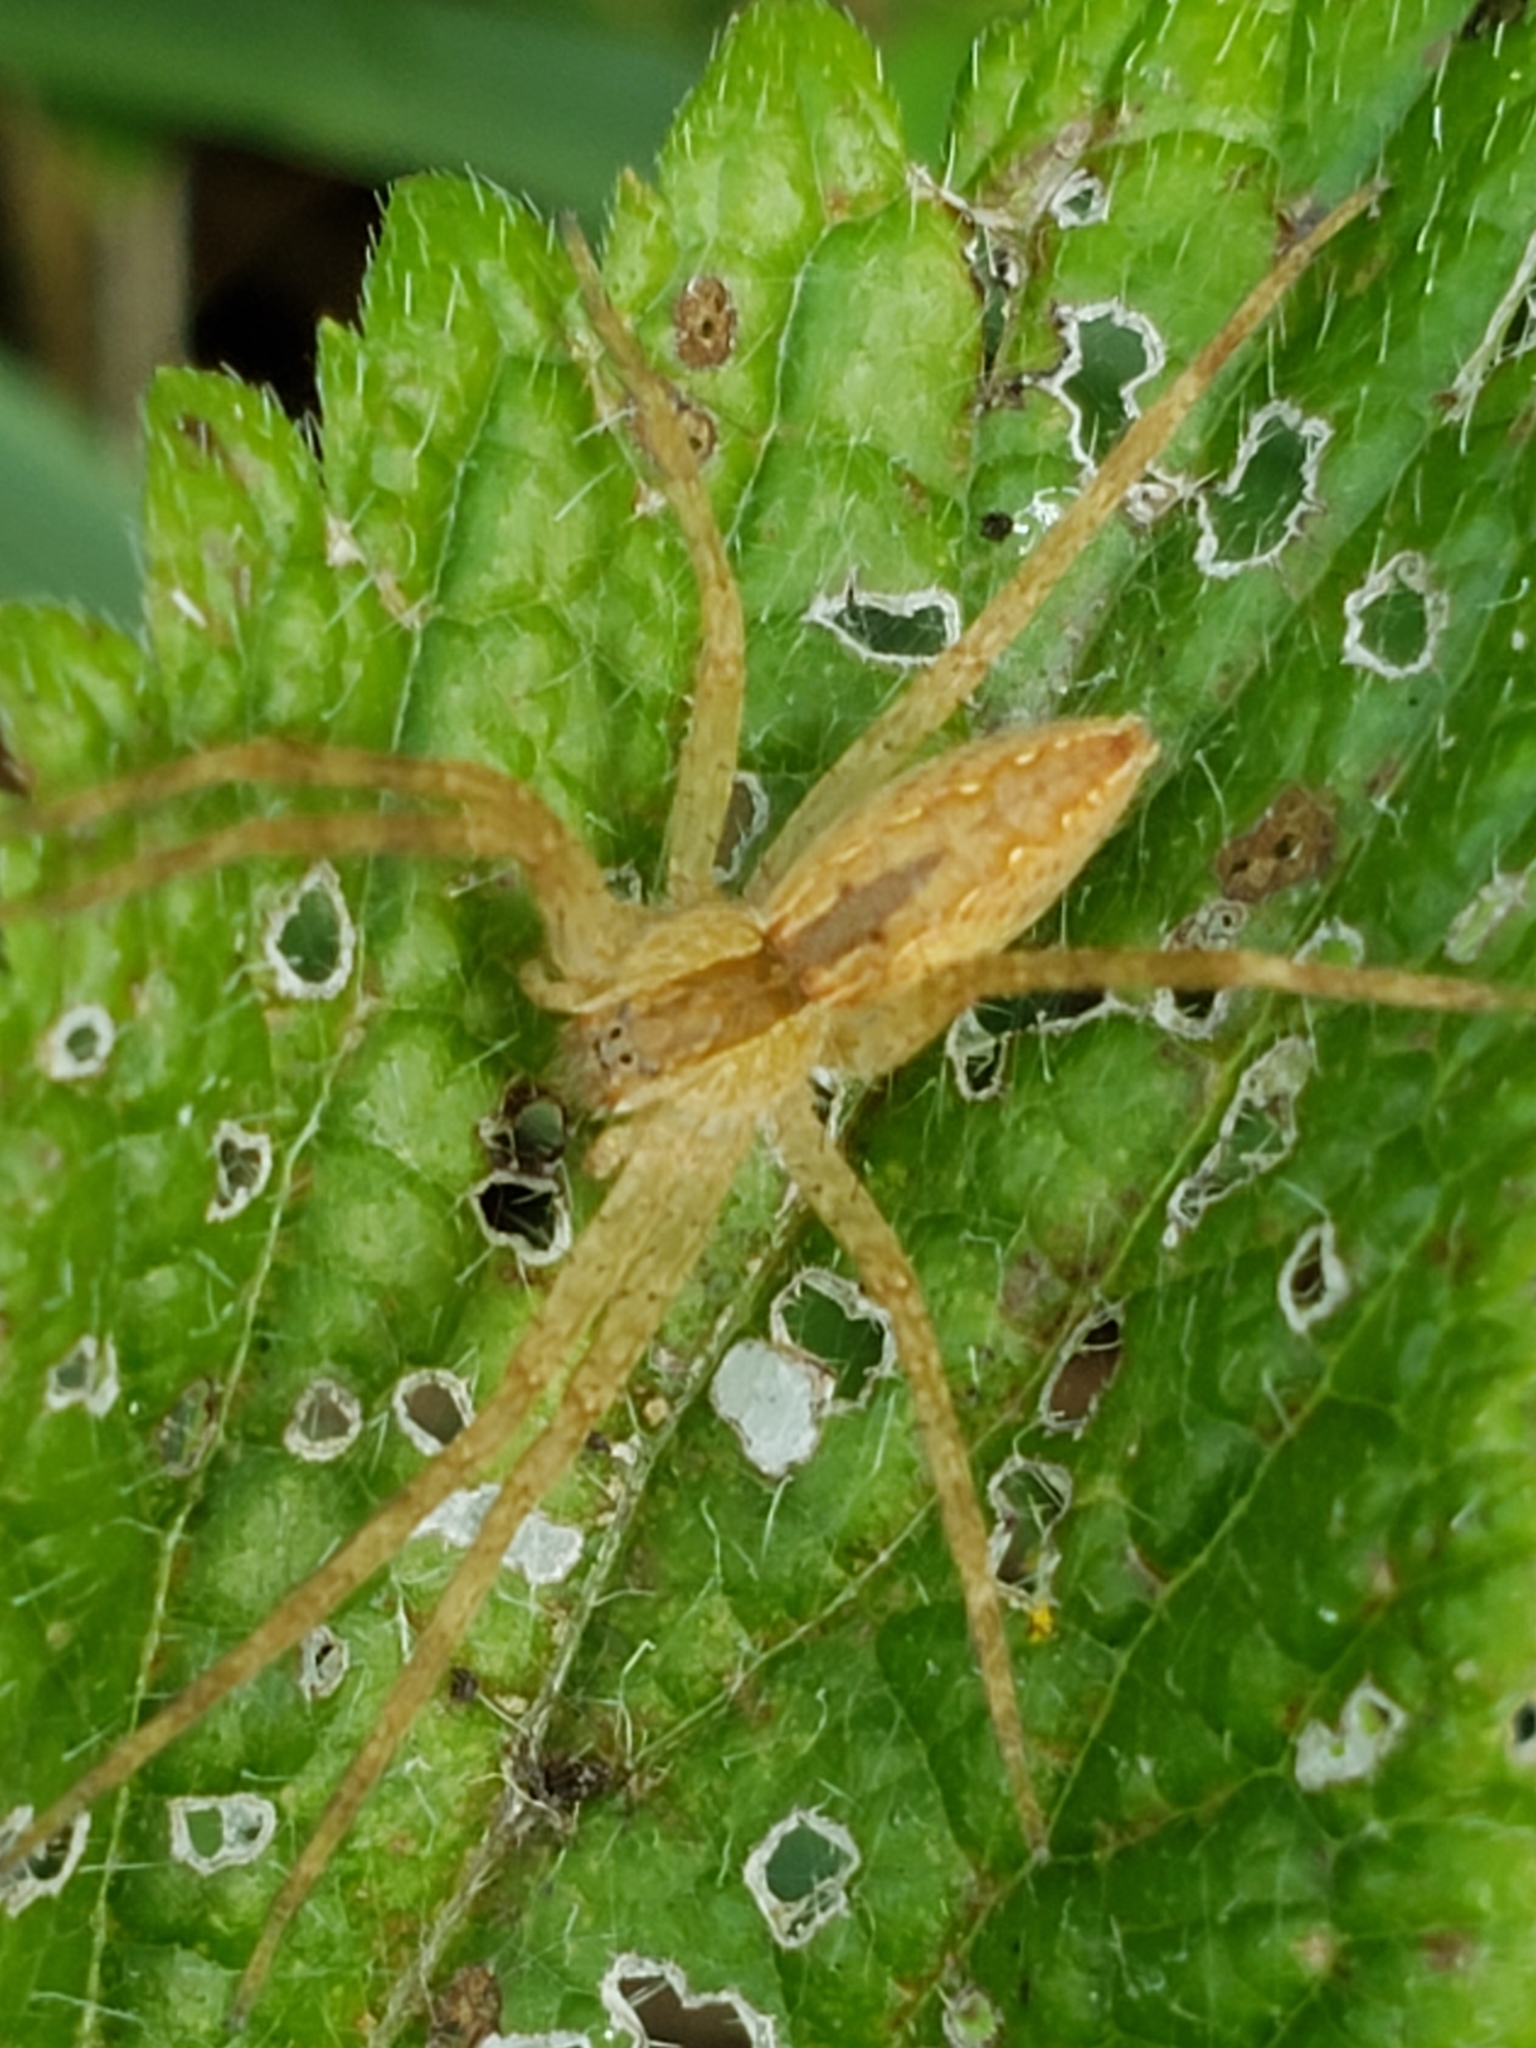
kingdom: Animalia
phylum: Arthropoda
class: Arachnida
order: Araneae
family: Pisauridae
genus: Pisaurina
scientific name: Pisaurina mira
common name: American nursery web spider
